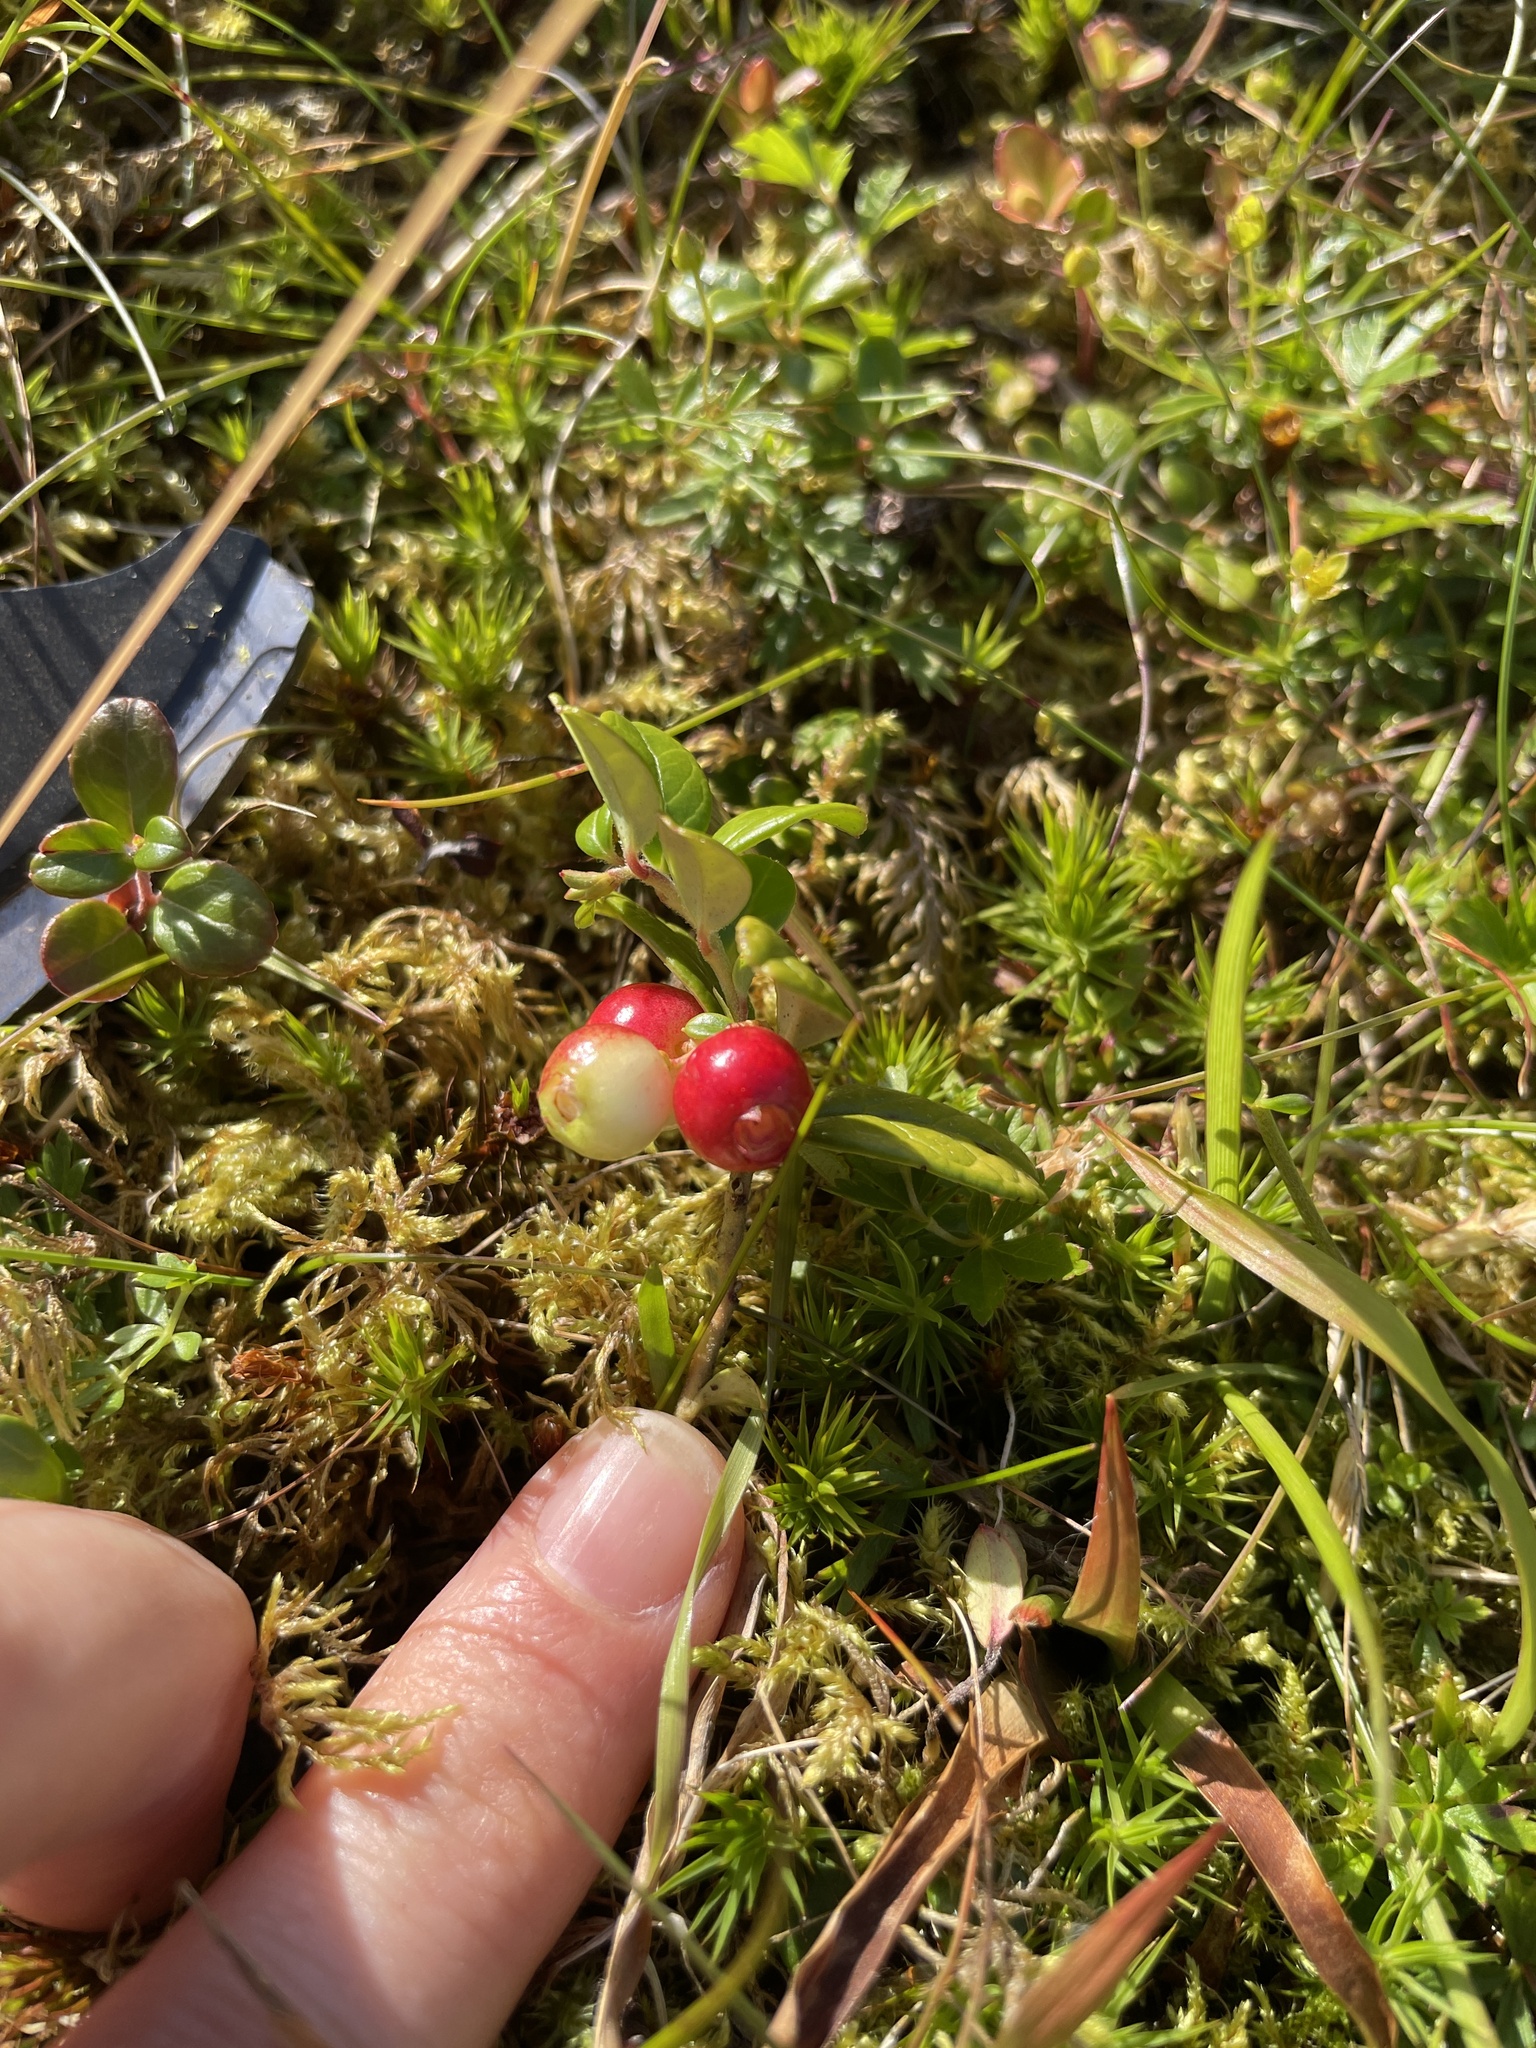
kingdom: Plantae
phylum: Tracheophyta
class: Magnoliopsida
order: Ericales
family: Ericaceae
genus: Vaccinium
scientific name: Vaccinium vitis-idaea
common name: Cowberry
